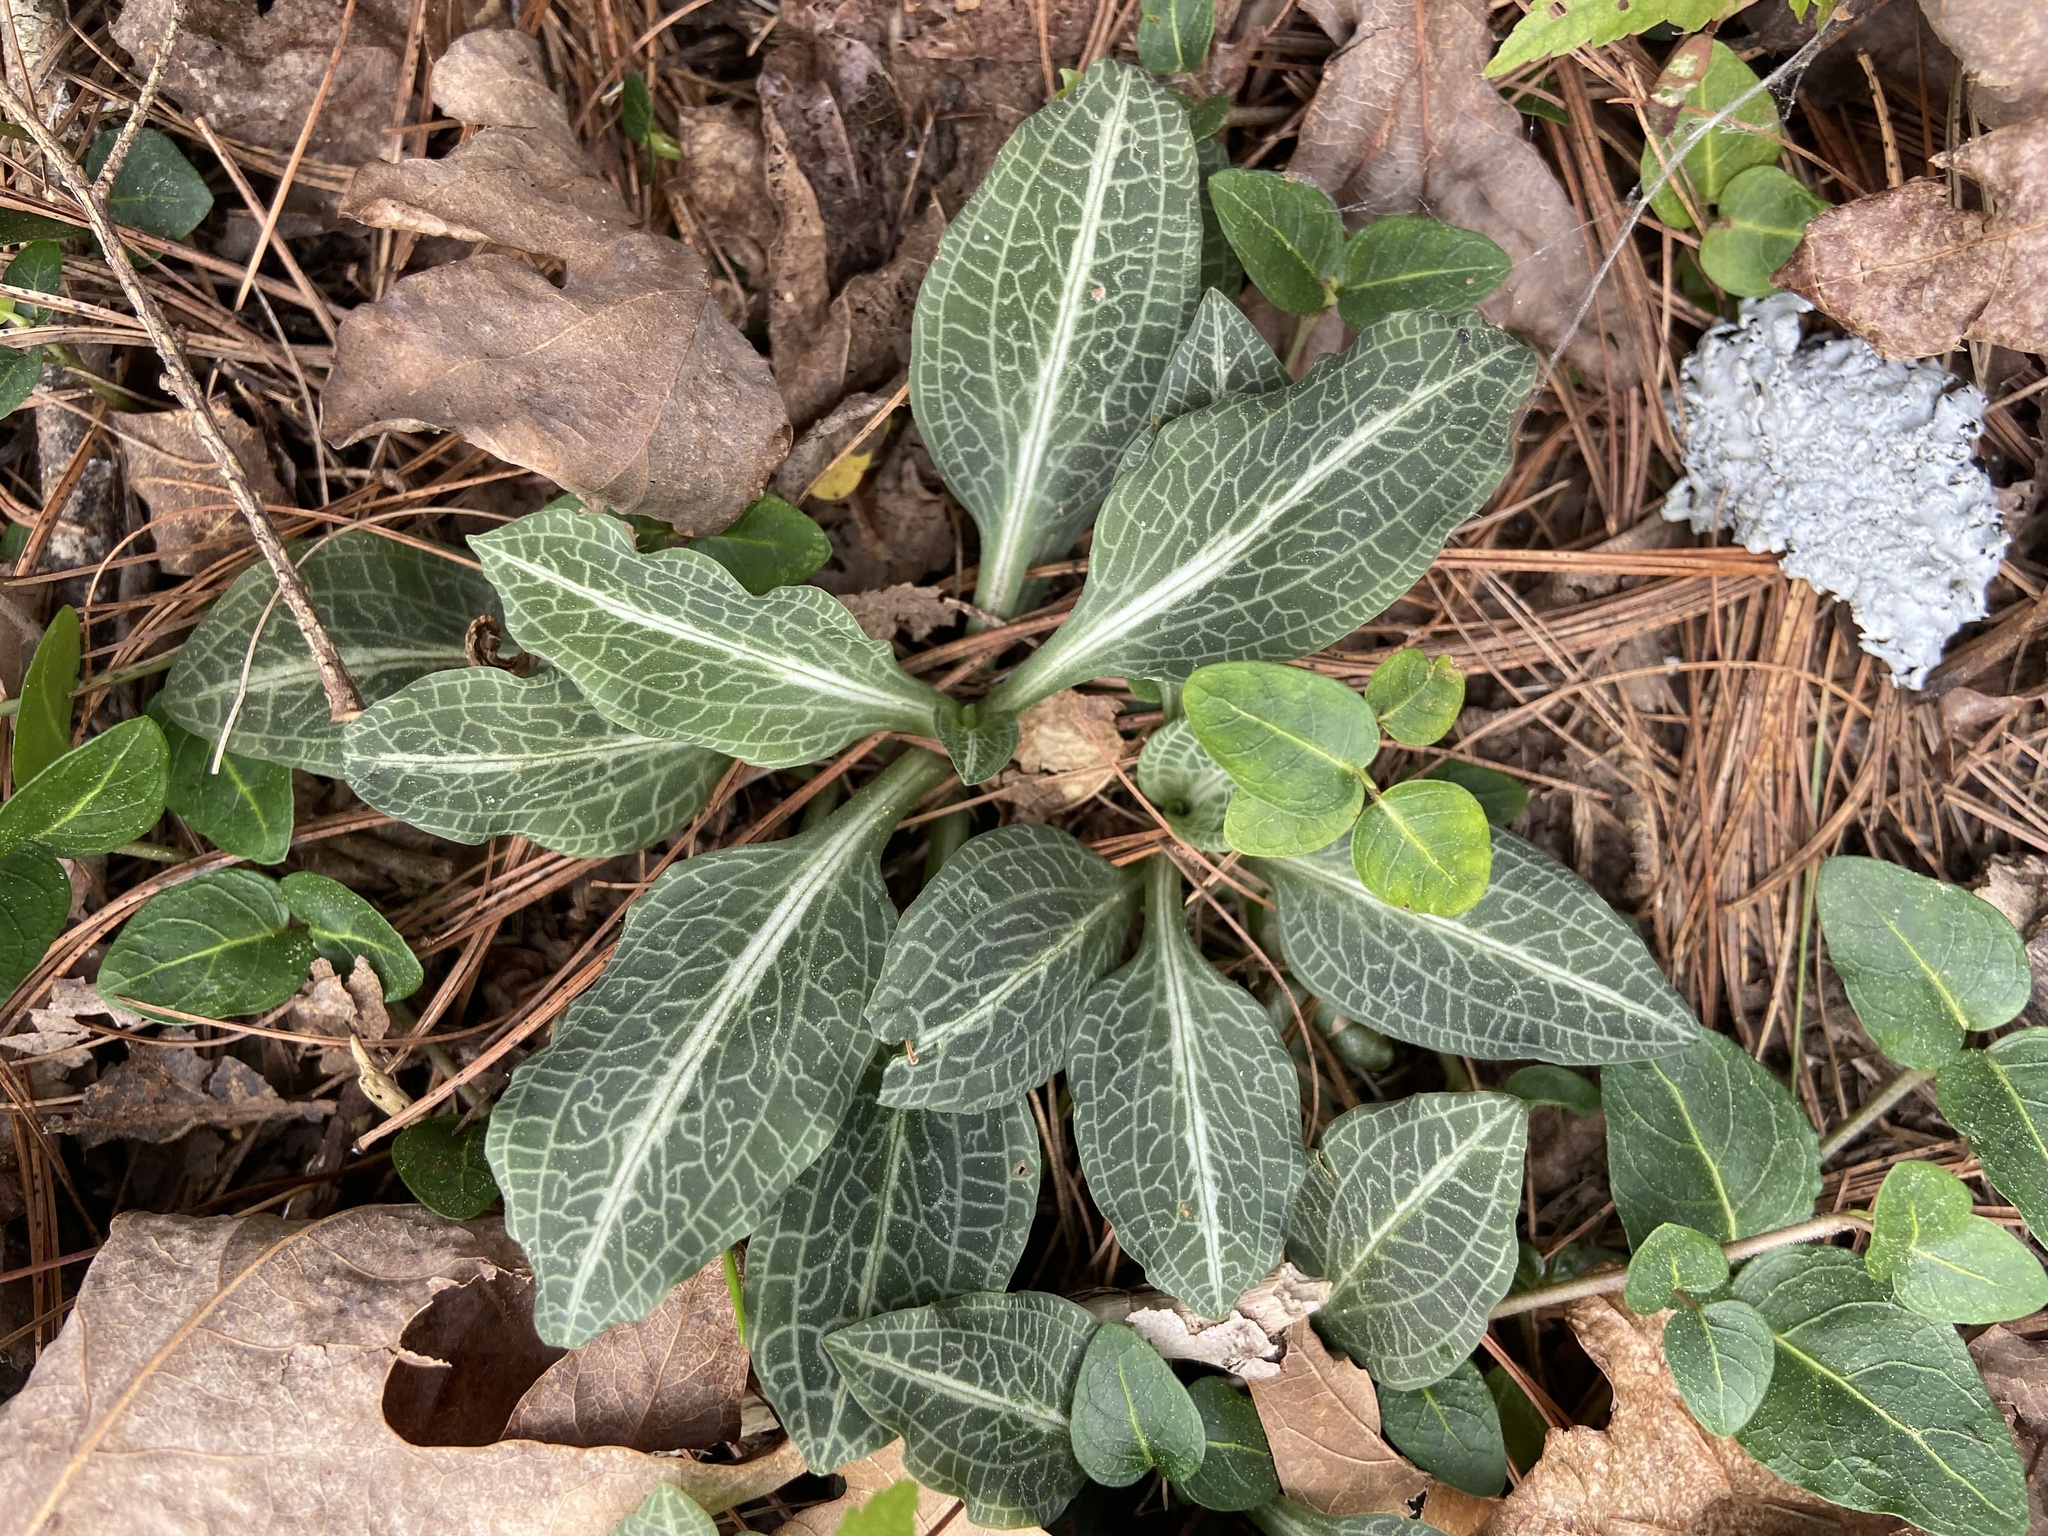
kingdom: Plantae
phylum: Tracheophyta
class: Liliopsida
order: Asparagales
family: Orchidaceae
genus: Goodyera
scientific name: Goodyera pubescens
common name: Downy rattlesnake-plantain
